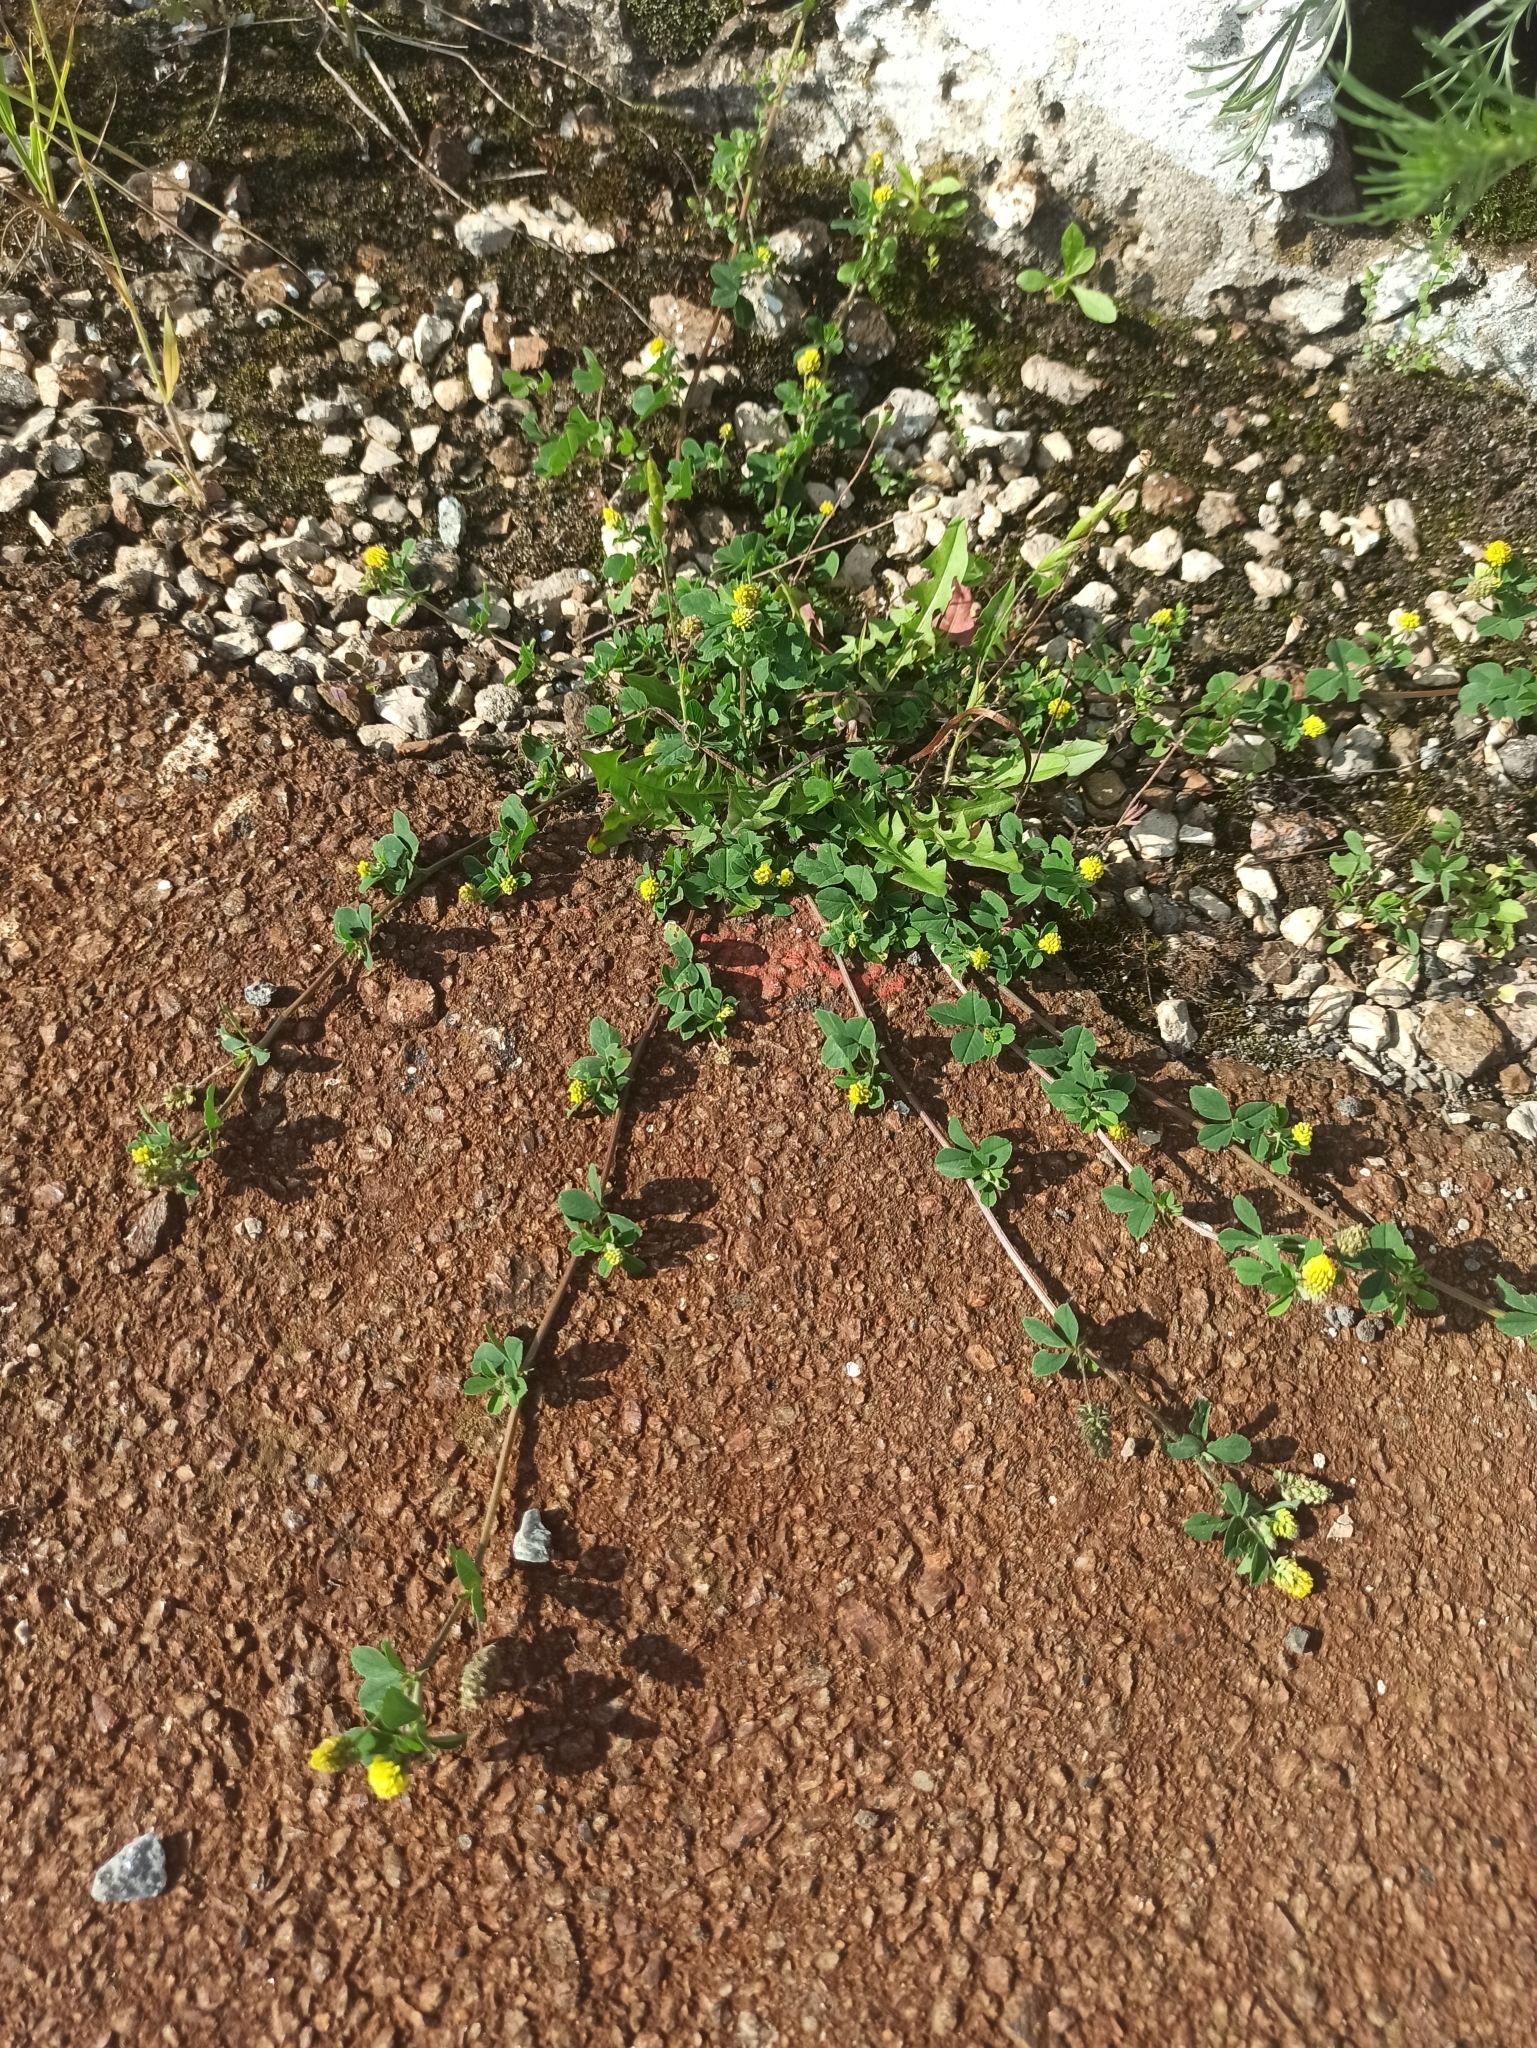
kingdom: Plantae
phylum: Tracheophyta
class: Magnoliopsida
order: Fabales
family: Fabaceae
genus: Medicago
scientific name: Medicago lupulina
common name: Black medick
